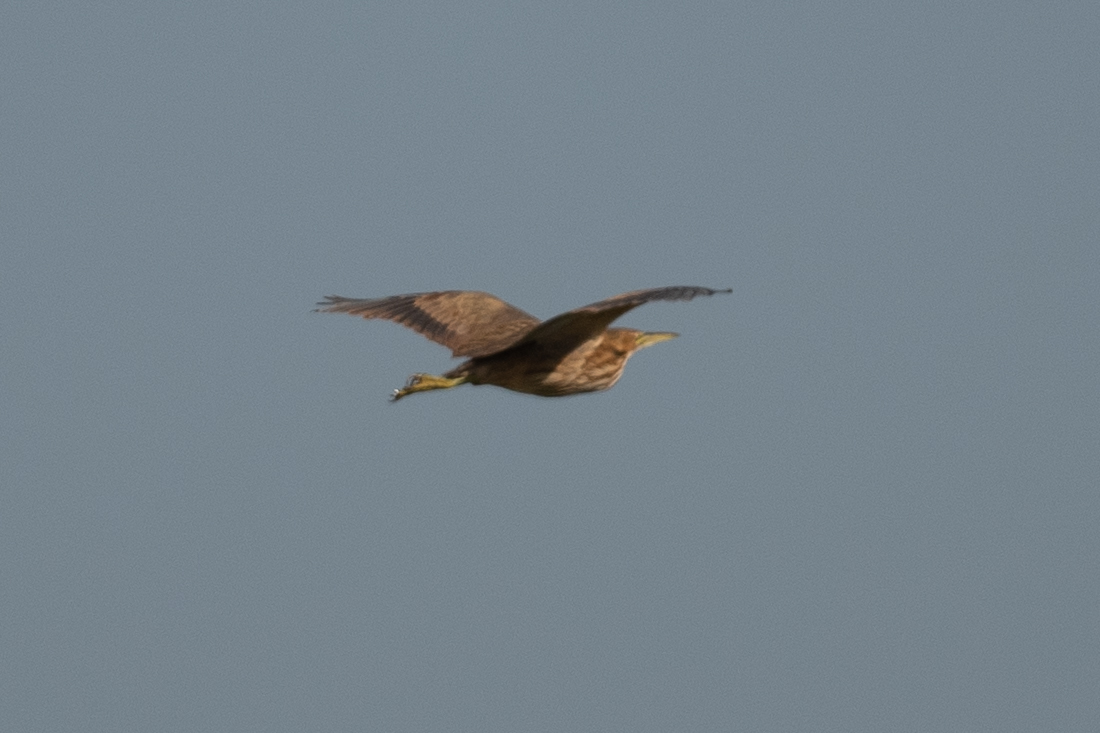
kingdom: Animalia
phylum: Chordata
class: Aves
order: Pelecaniformes
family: Ardeidae
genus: Botaurus
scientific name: Botaurus lentiginosus
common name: American bittern
